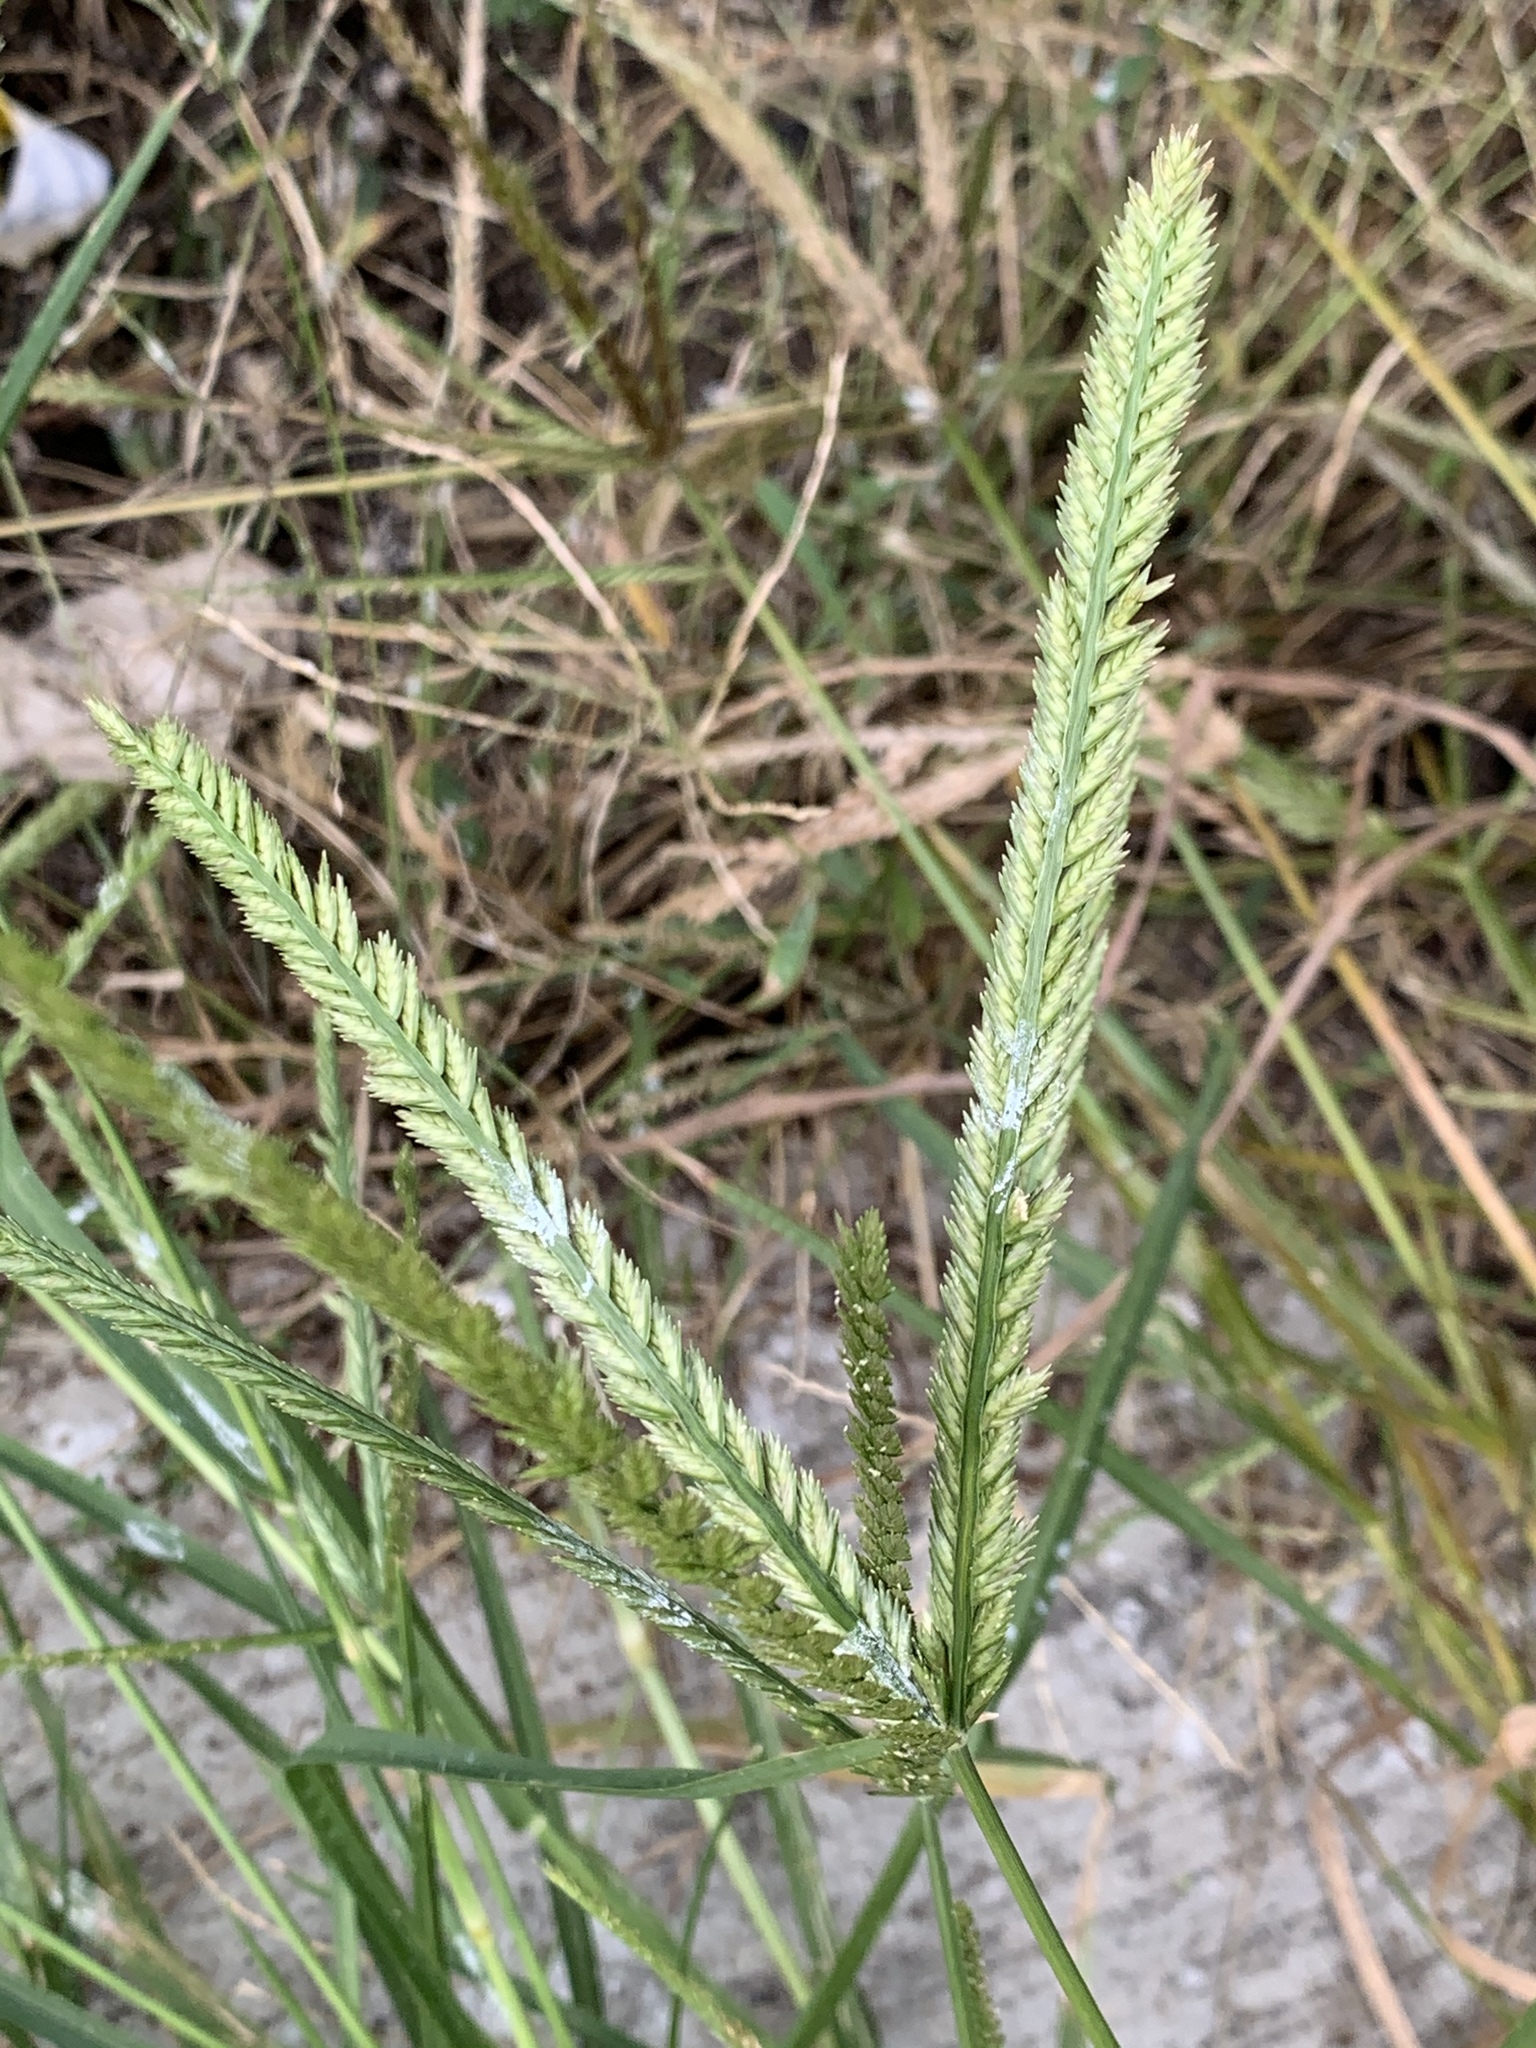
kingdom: Plantae
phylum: Tracheophyta
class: Liliopsida
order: Poales
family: Poaceae
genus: Eleusine
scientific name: Eleusine indica
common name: Yard-grass
